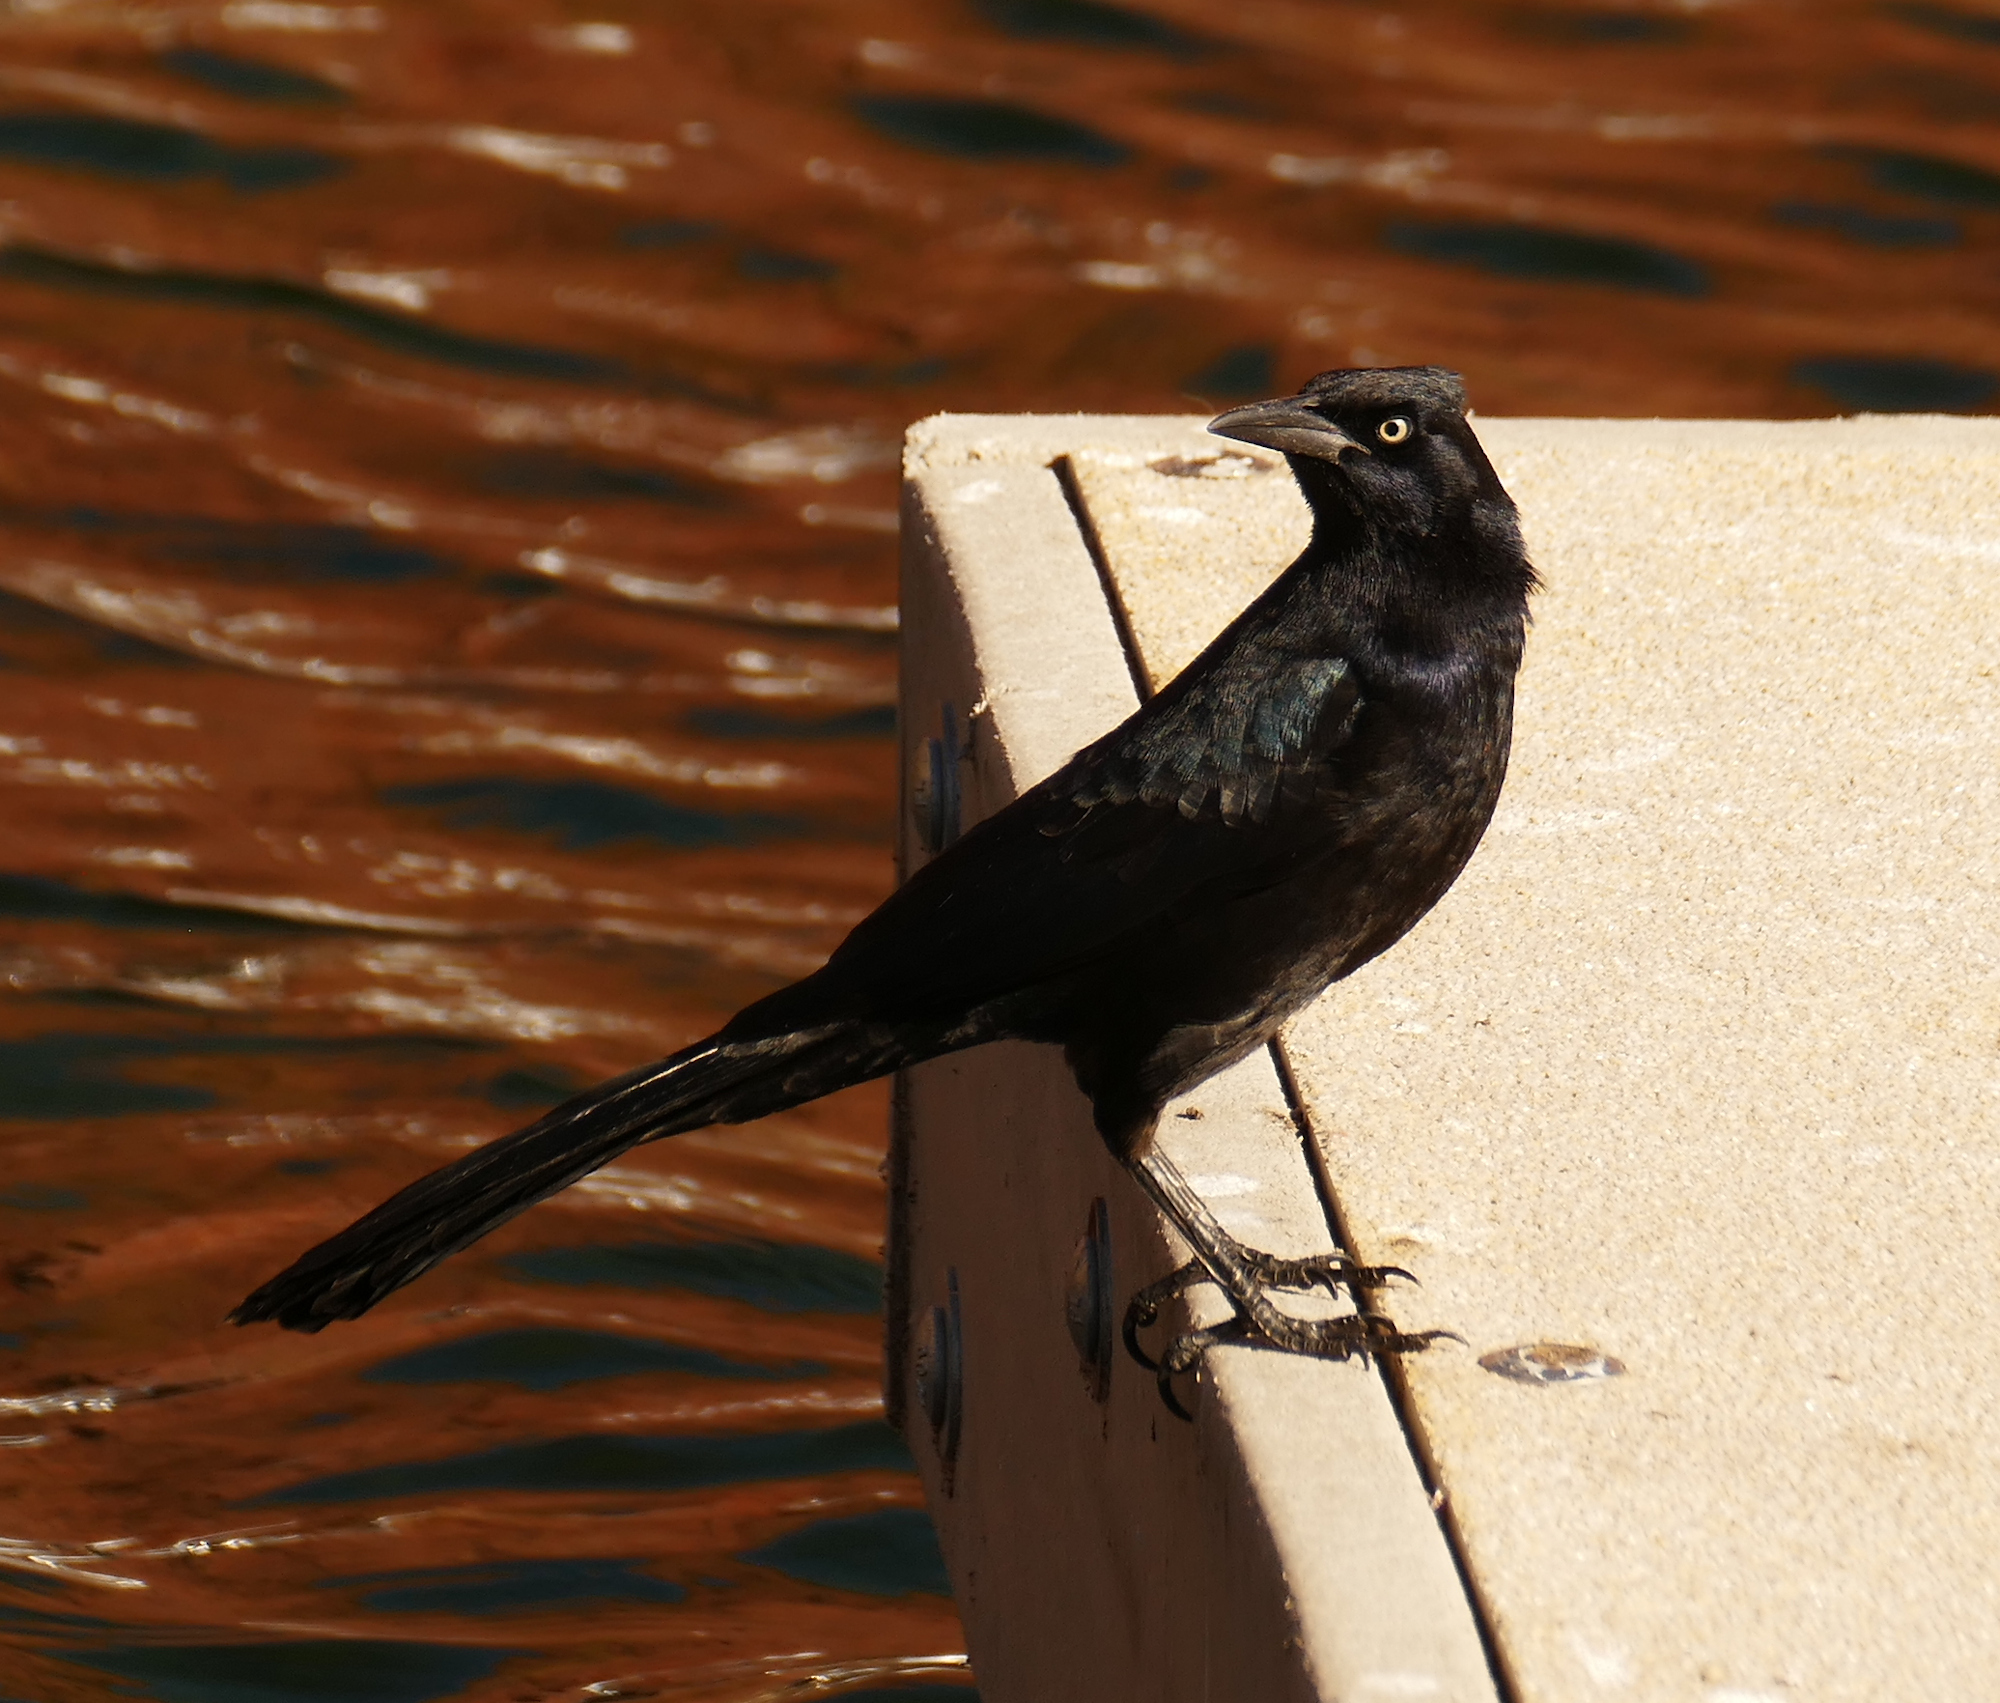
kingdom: Animalia
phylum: Chordata
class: Aves
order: Passeriformes
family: Icteridae
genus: Quiscalus
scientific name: Quiscalus mexicanus
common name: Great-tailed grackle
